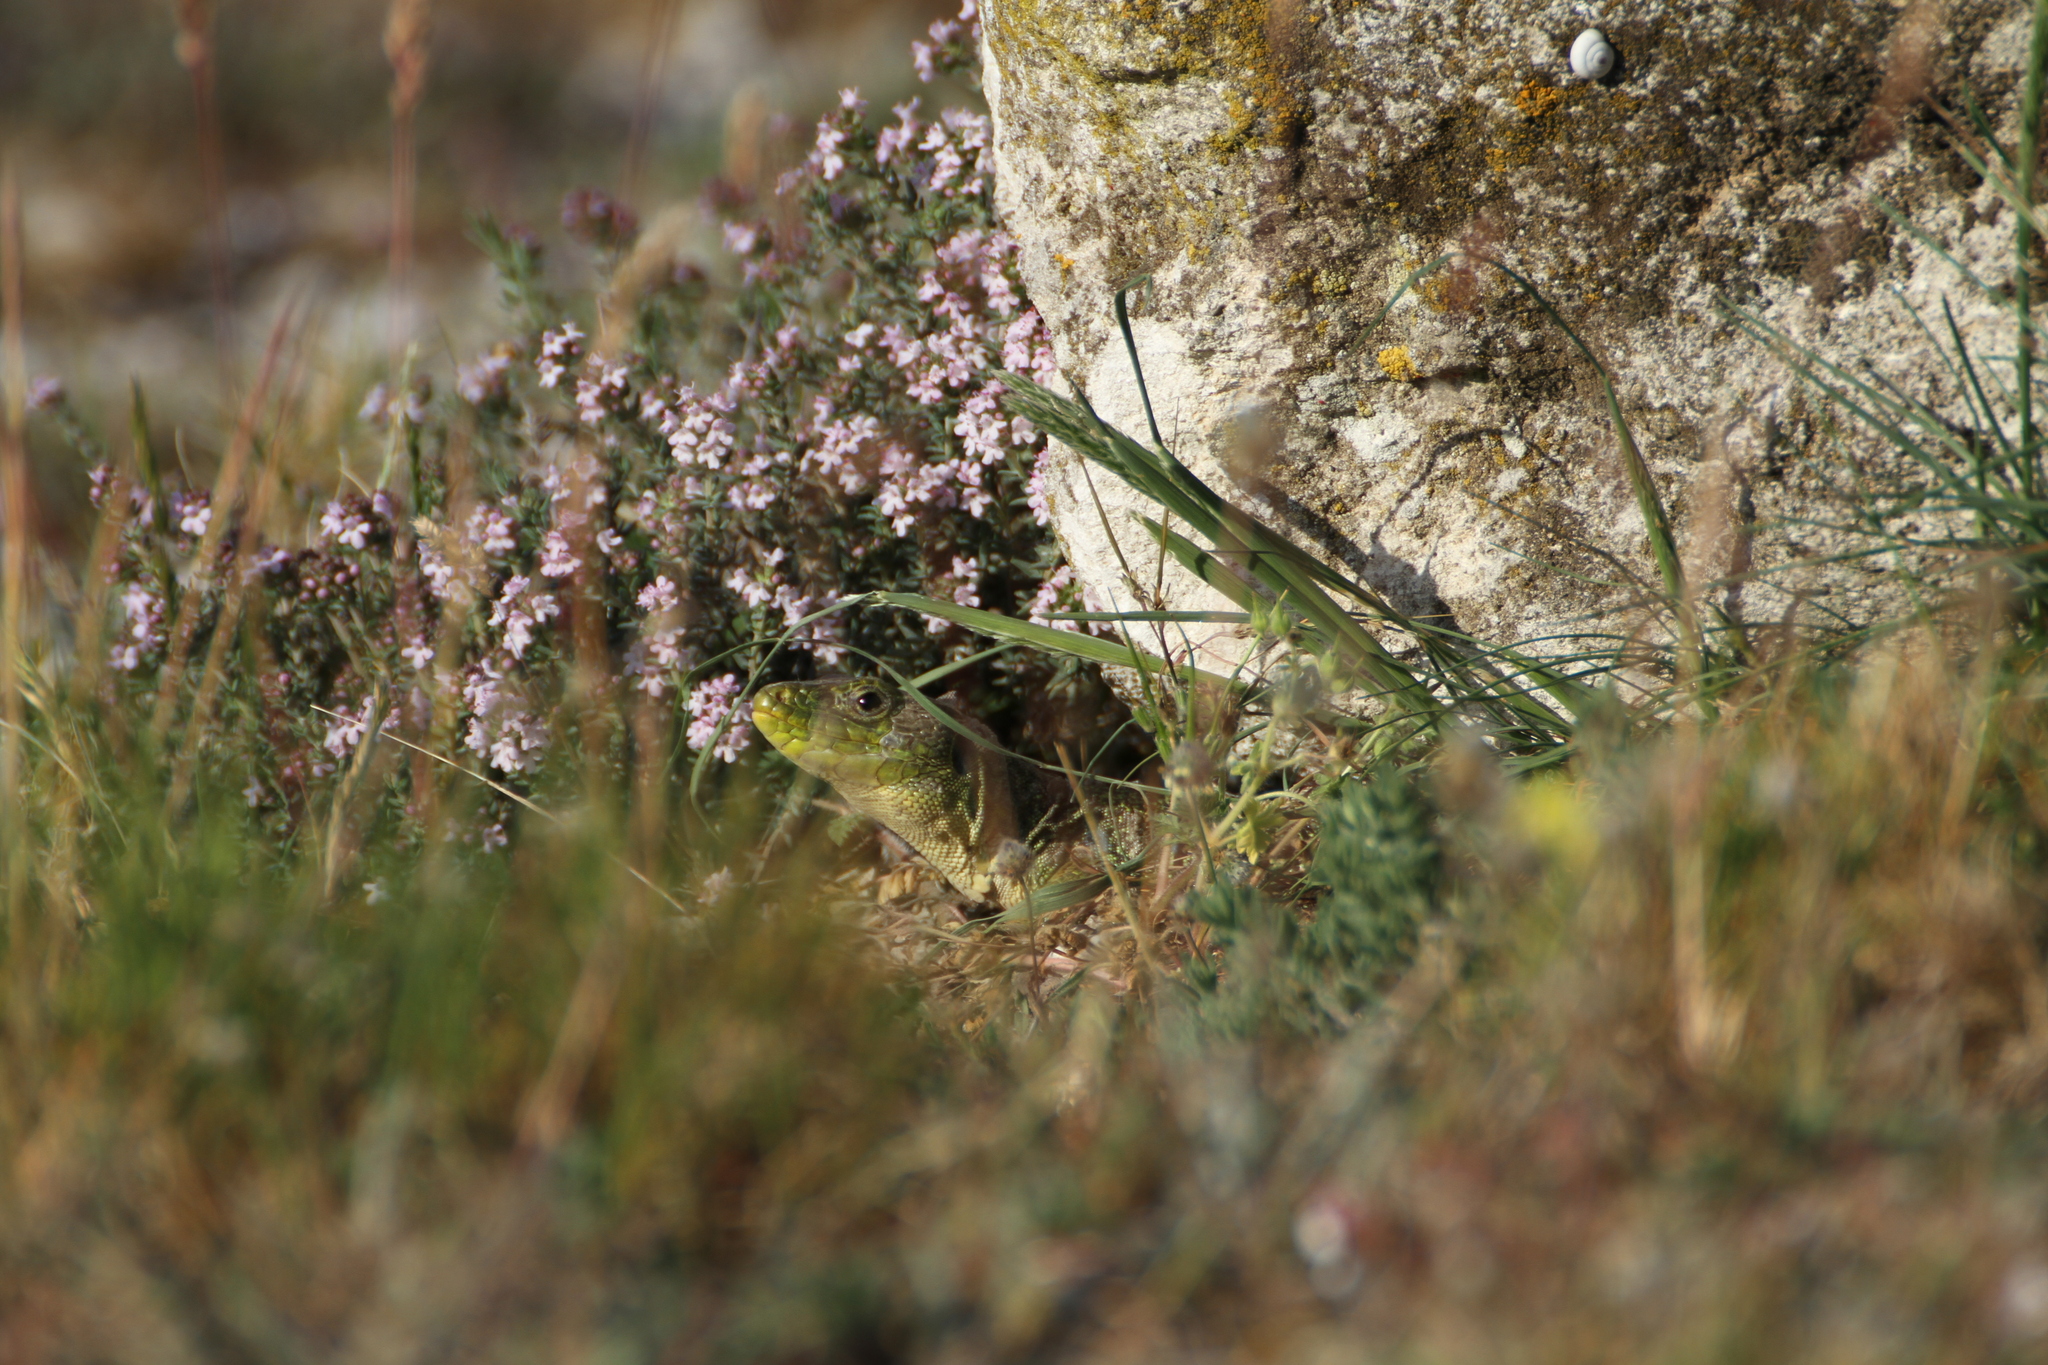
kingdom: Animalia
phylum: Chordata
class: Squamata
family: Lacertidae
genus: Timon
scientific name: Timon lepidus
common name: Ocellated lizard
